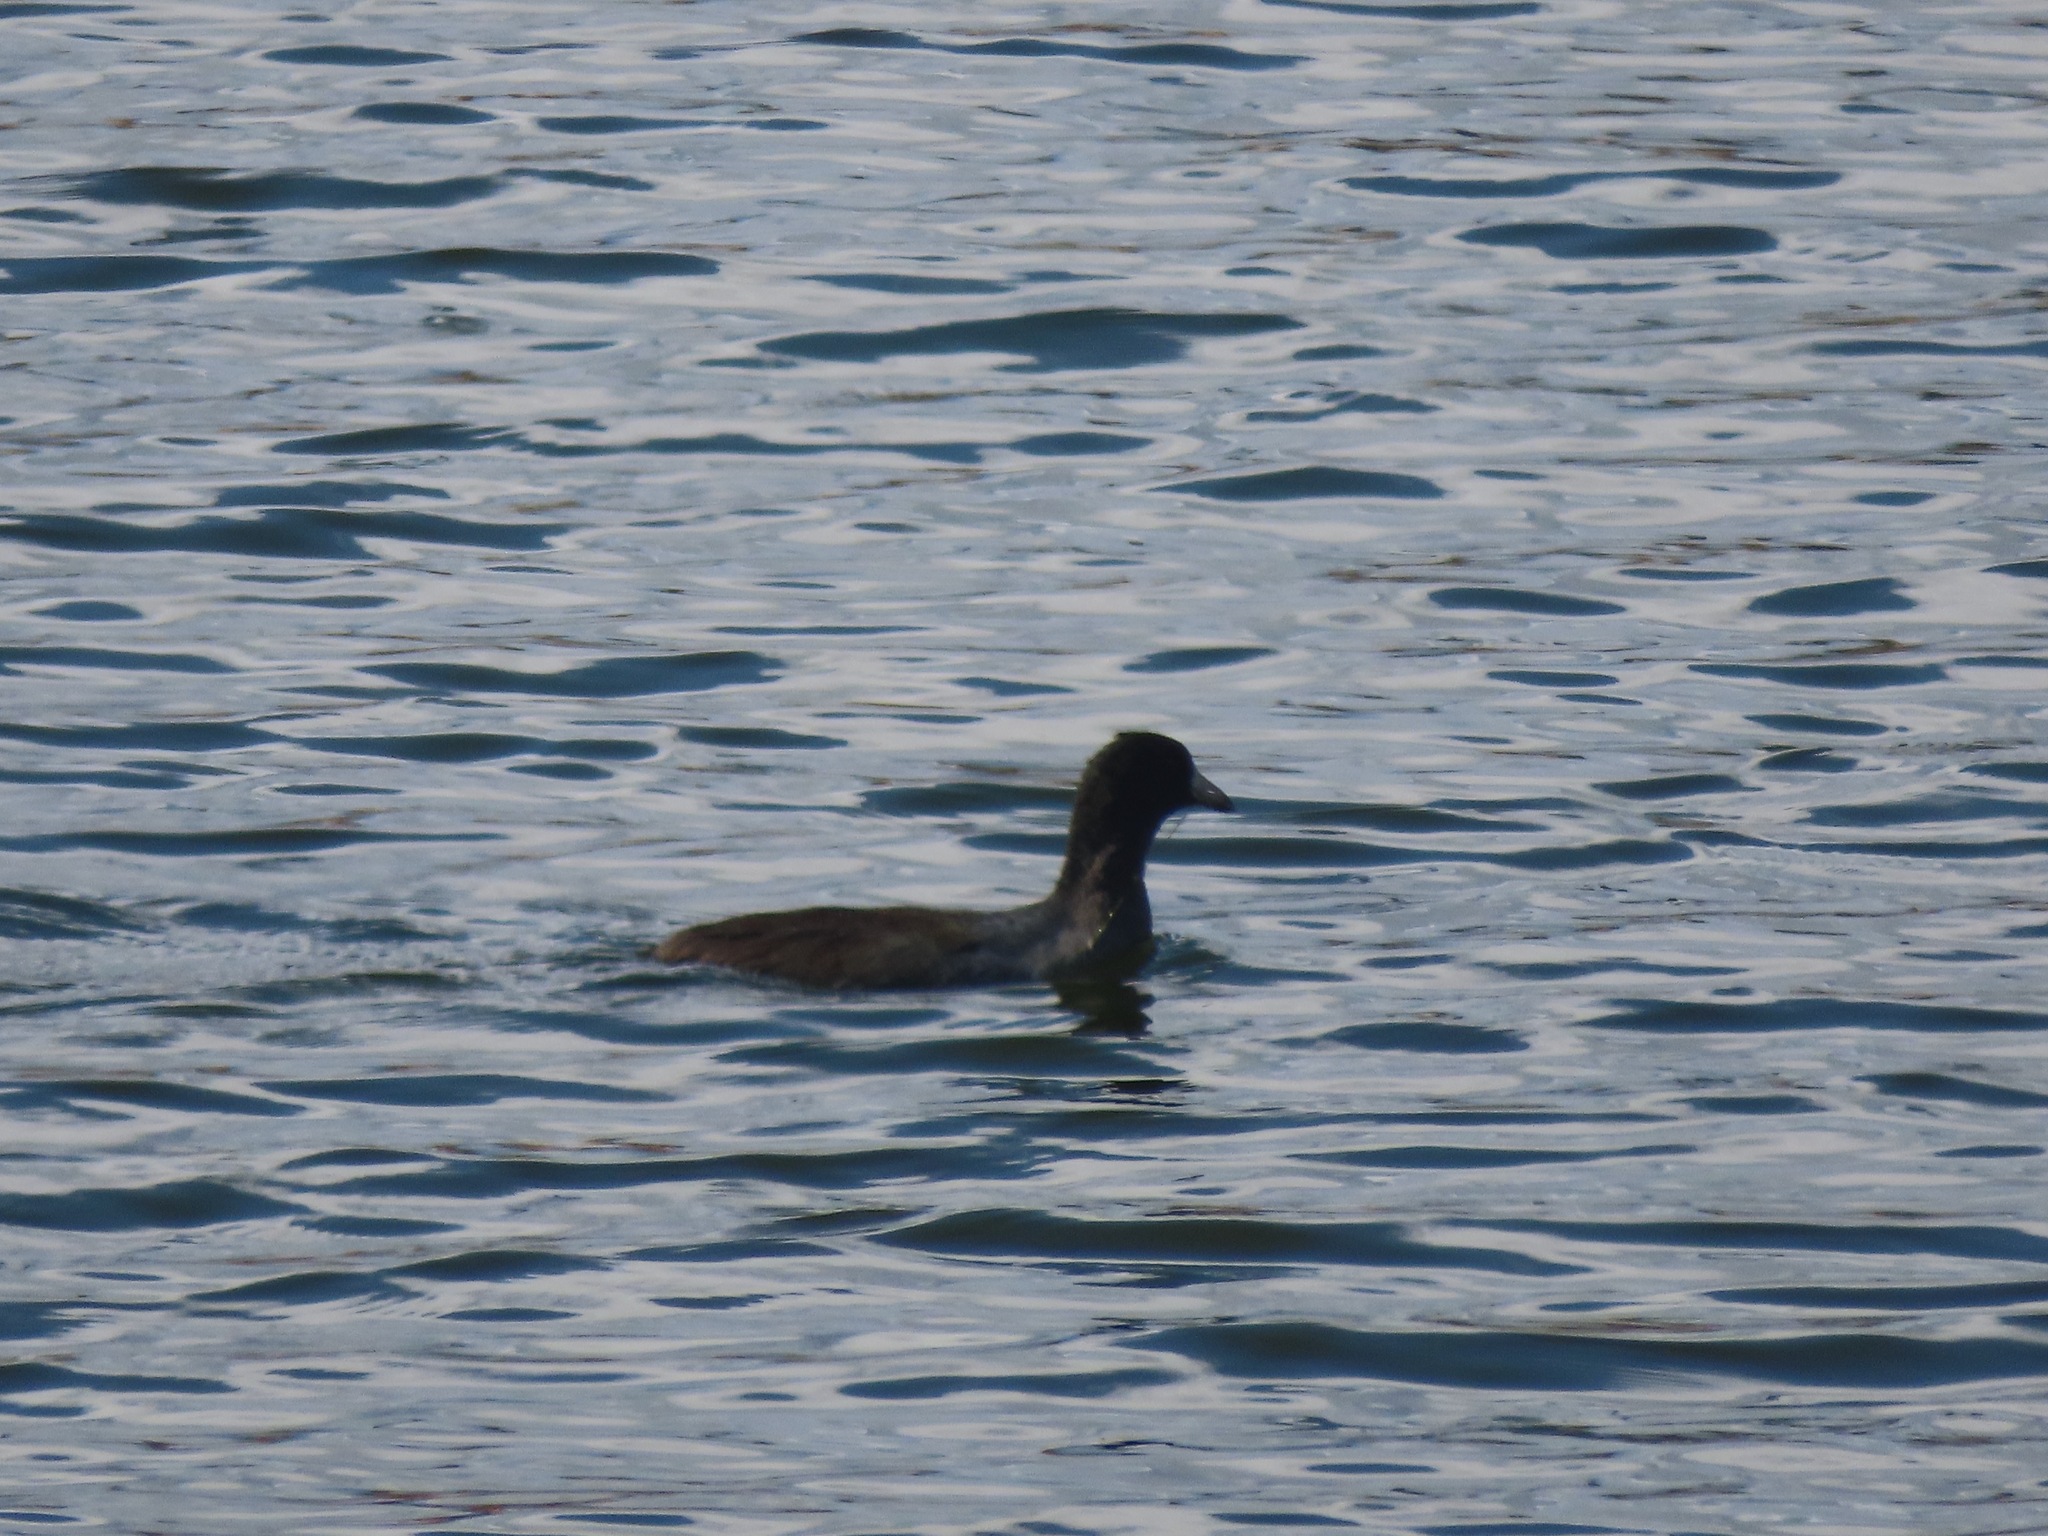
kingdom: Animalia
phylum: Chordata
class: Aves
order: Gruiformes
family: Rallidae
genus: Fulica
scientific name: Fulica americana
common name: American coot
